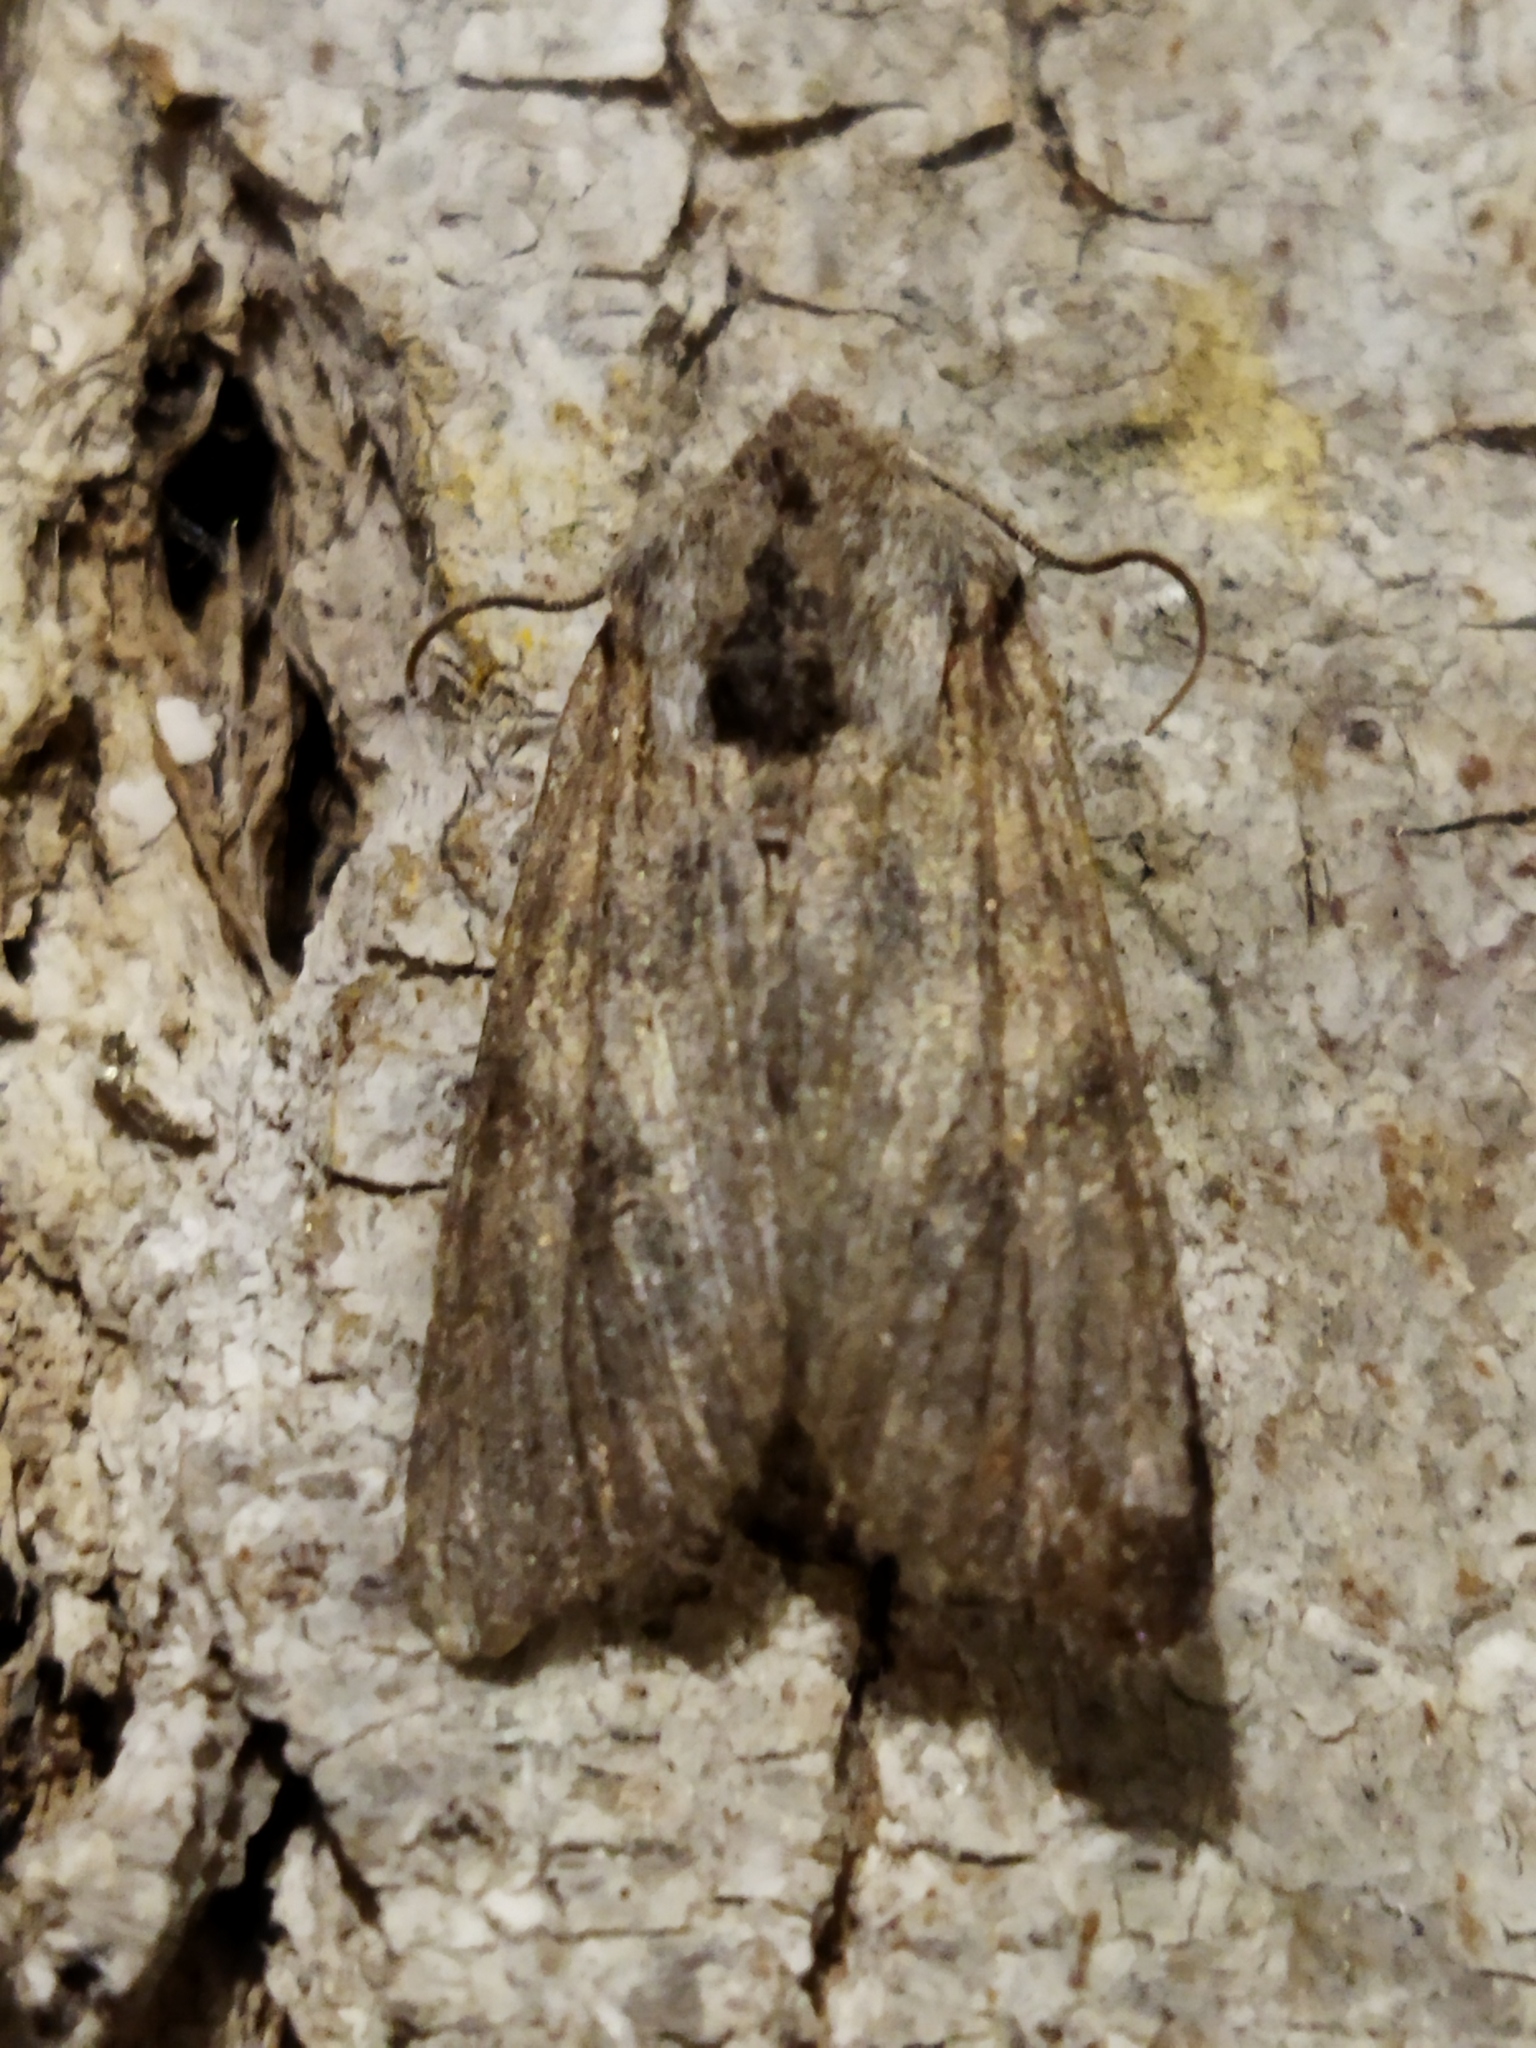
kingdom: Animalia
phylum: Arthropoda
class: Insecta
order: Lepidoptera
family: Noctuidae
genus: Egira
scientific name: Egira
